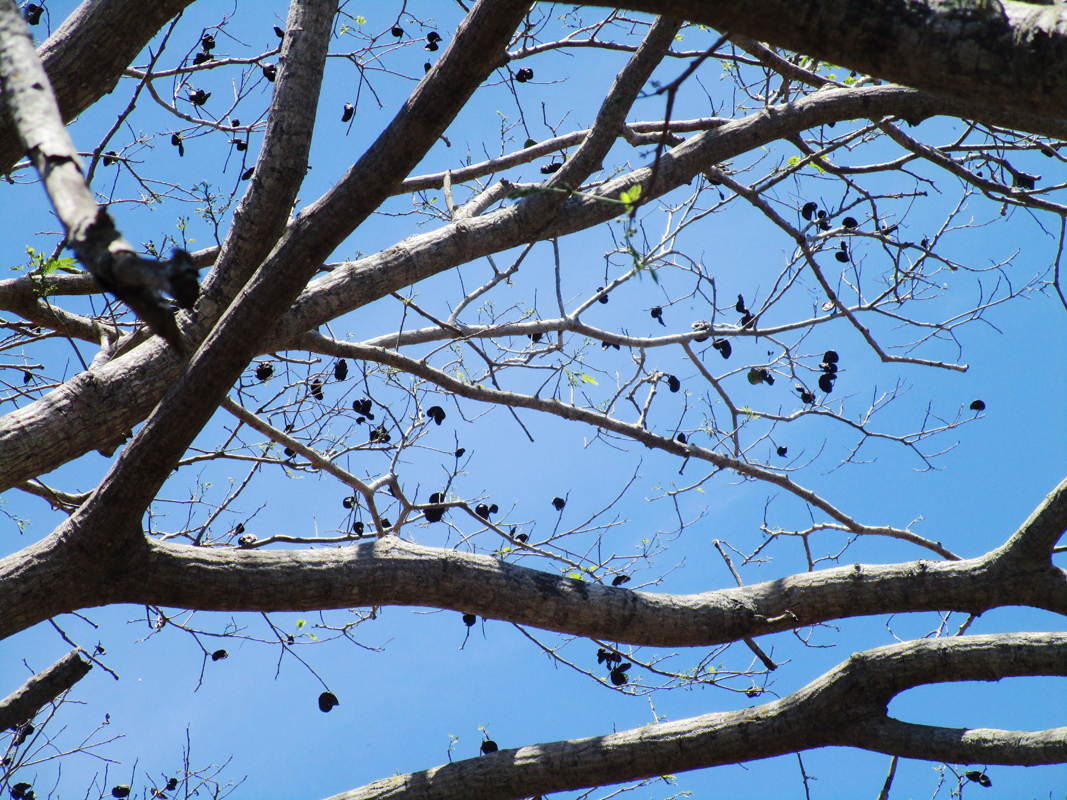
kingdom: Plantae
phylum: Tracheophyta
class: Magnoliopsida
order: Fabales
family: Fabaceae
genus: Enterolobium
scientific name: Enterolobium cyclocarpum
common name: Ear tree
